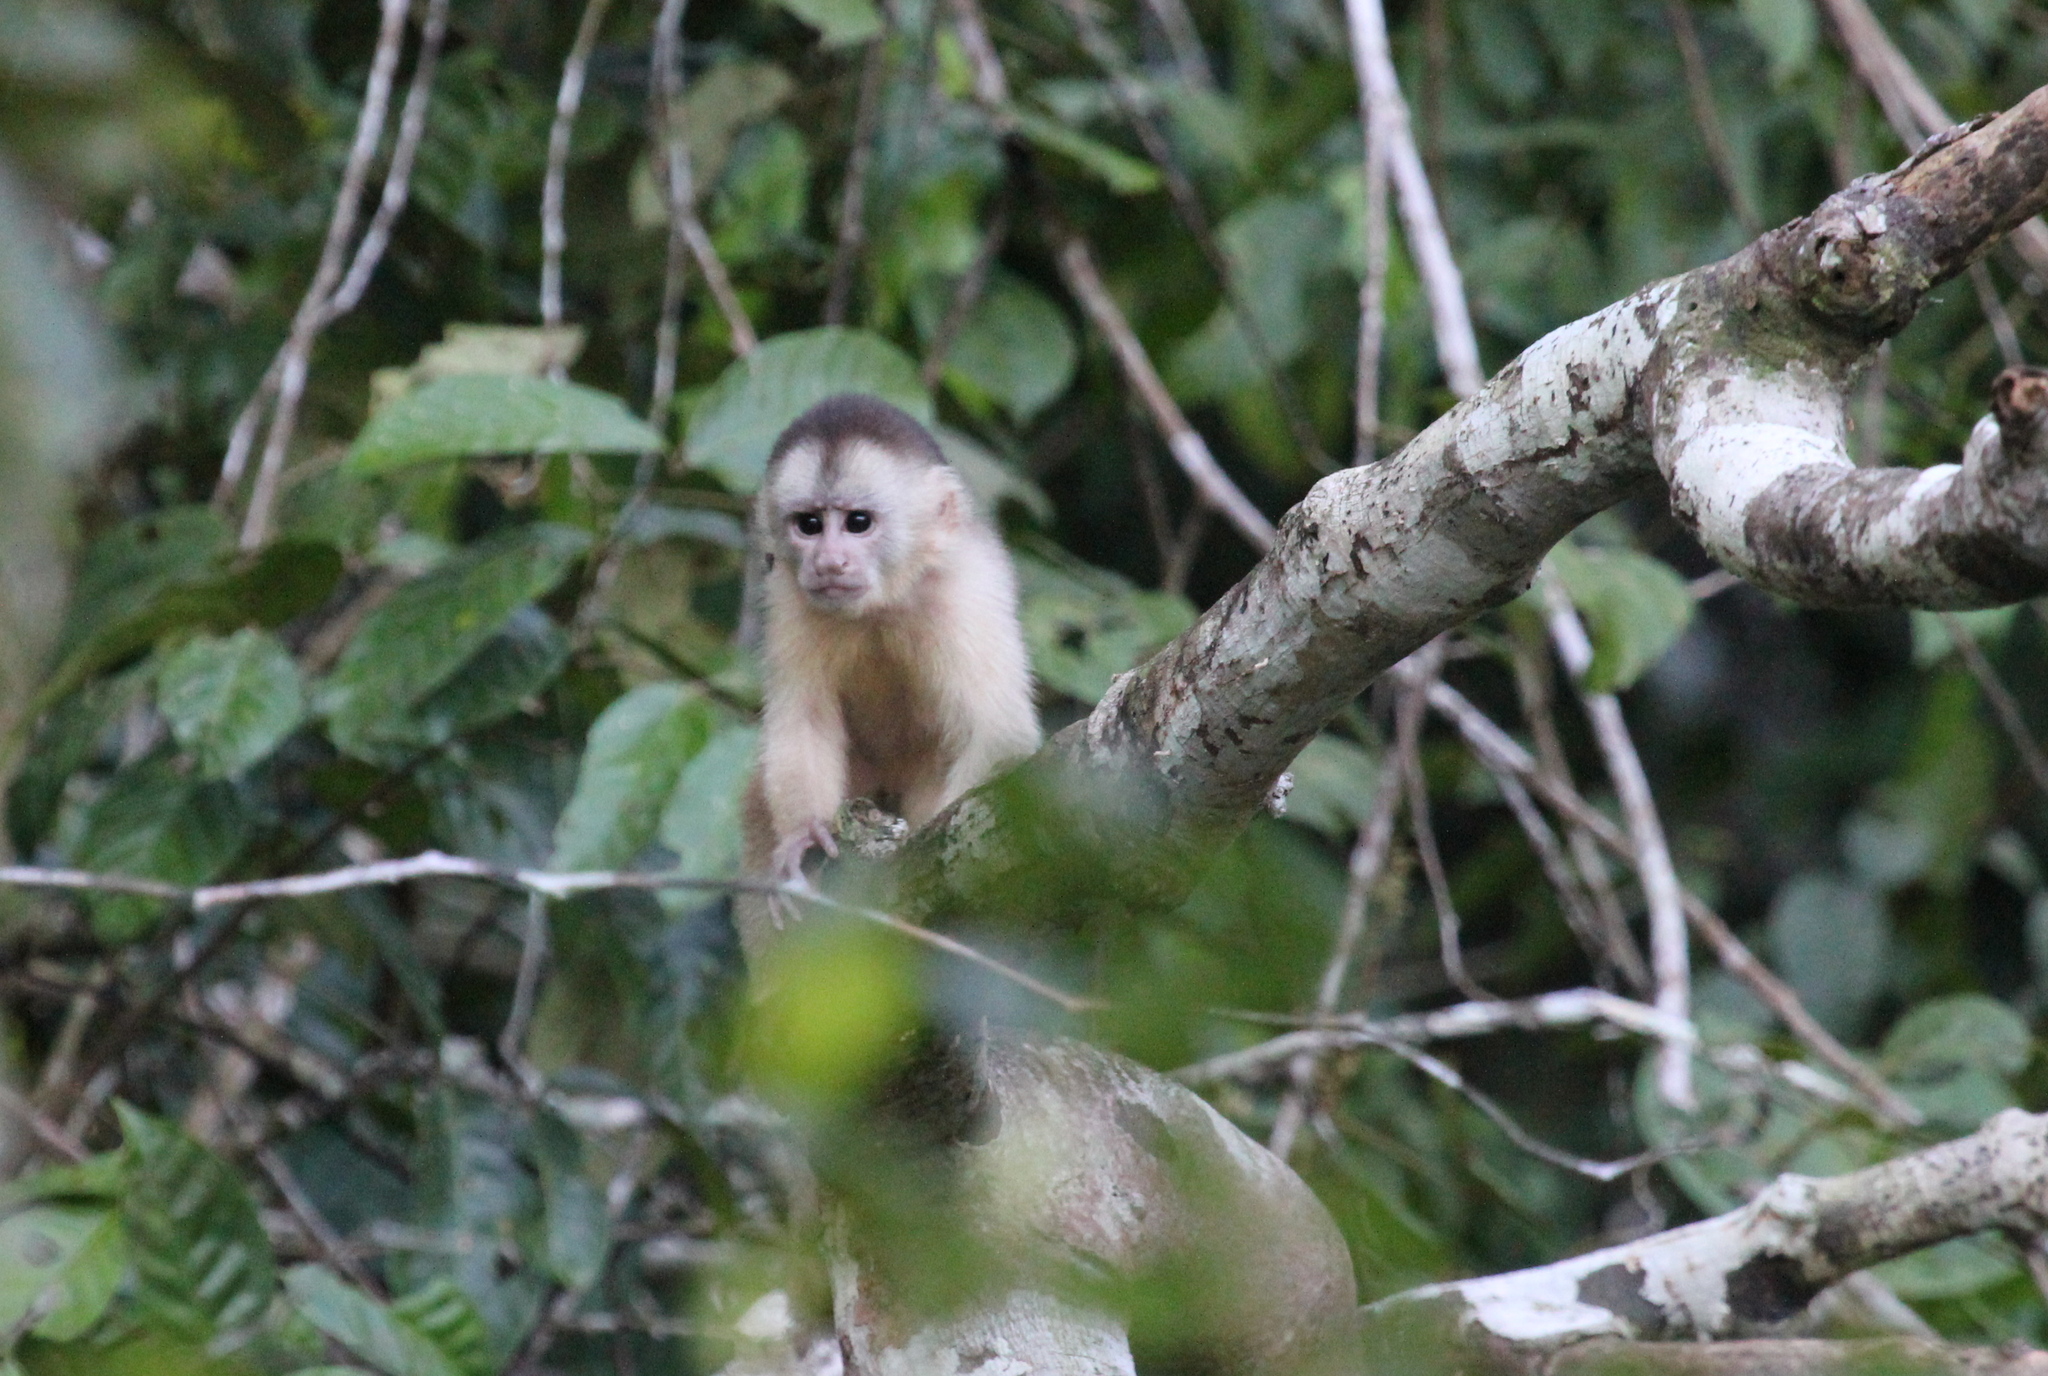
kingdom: Animalia
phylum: Chordata
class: Mammalia
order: Primates
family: Cebidae
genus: Cebus
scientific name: Cebus yuracus
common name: Peruvian white-fronted capuchin
